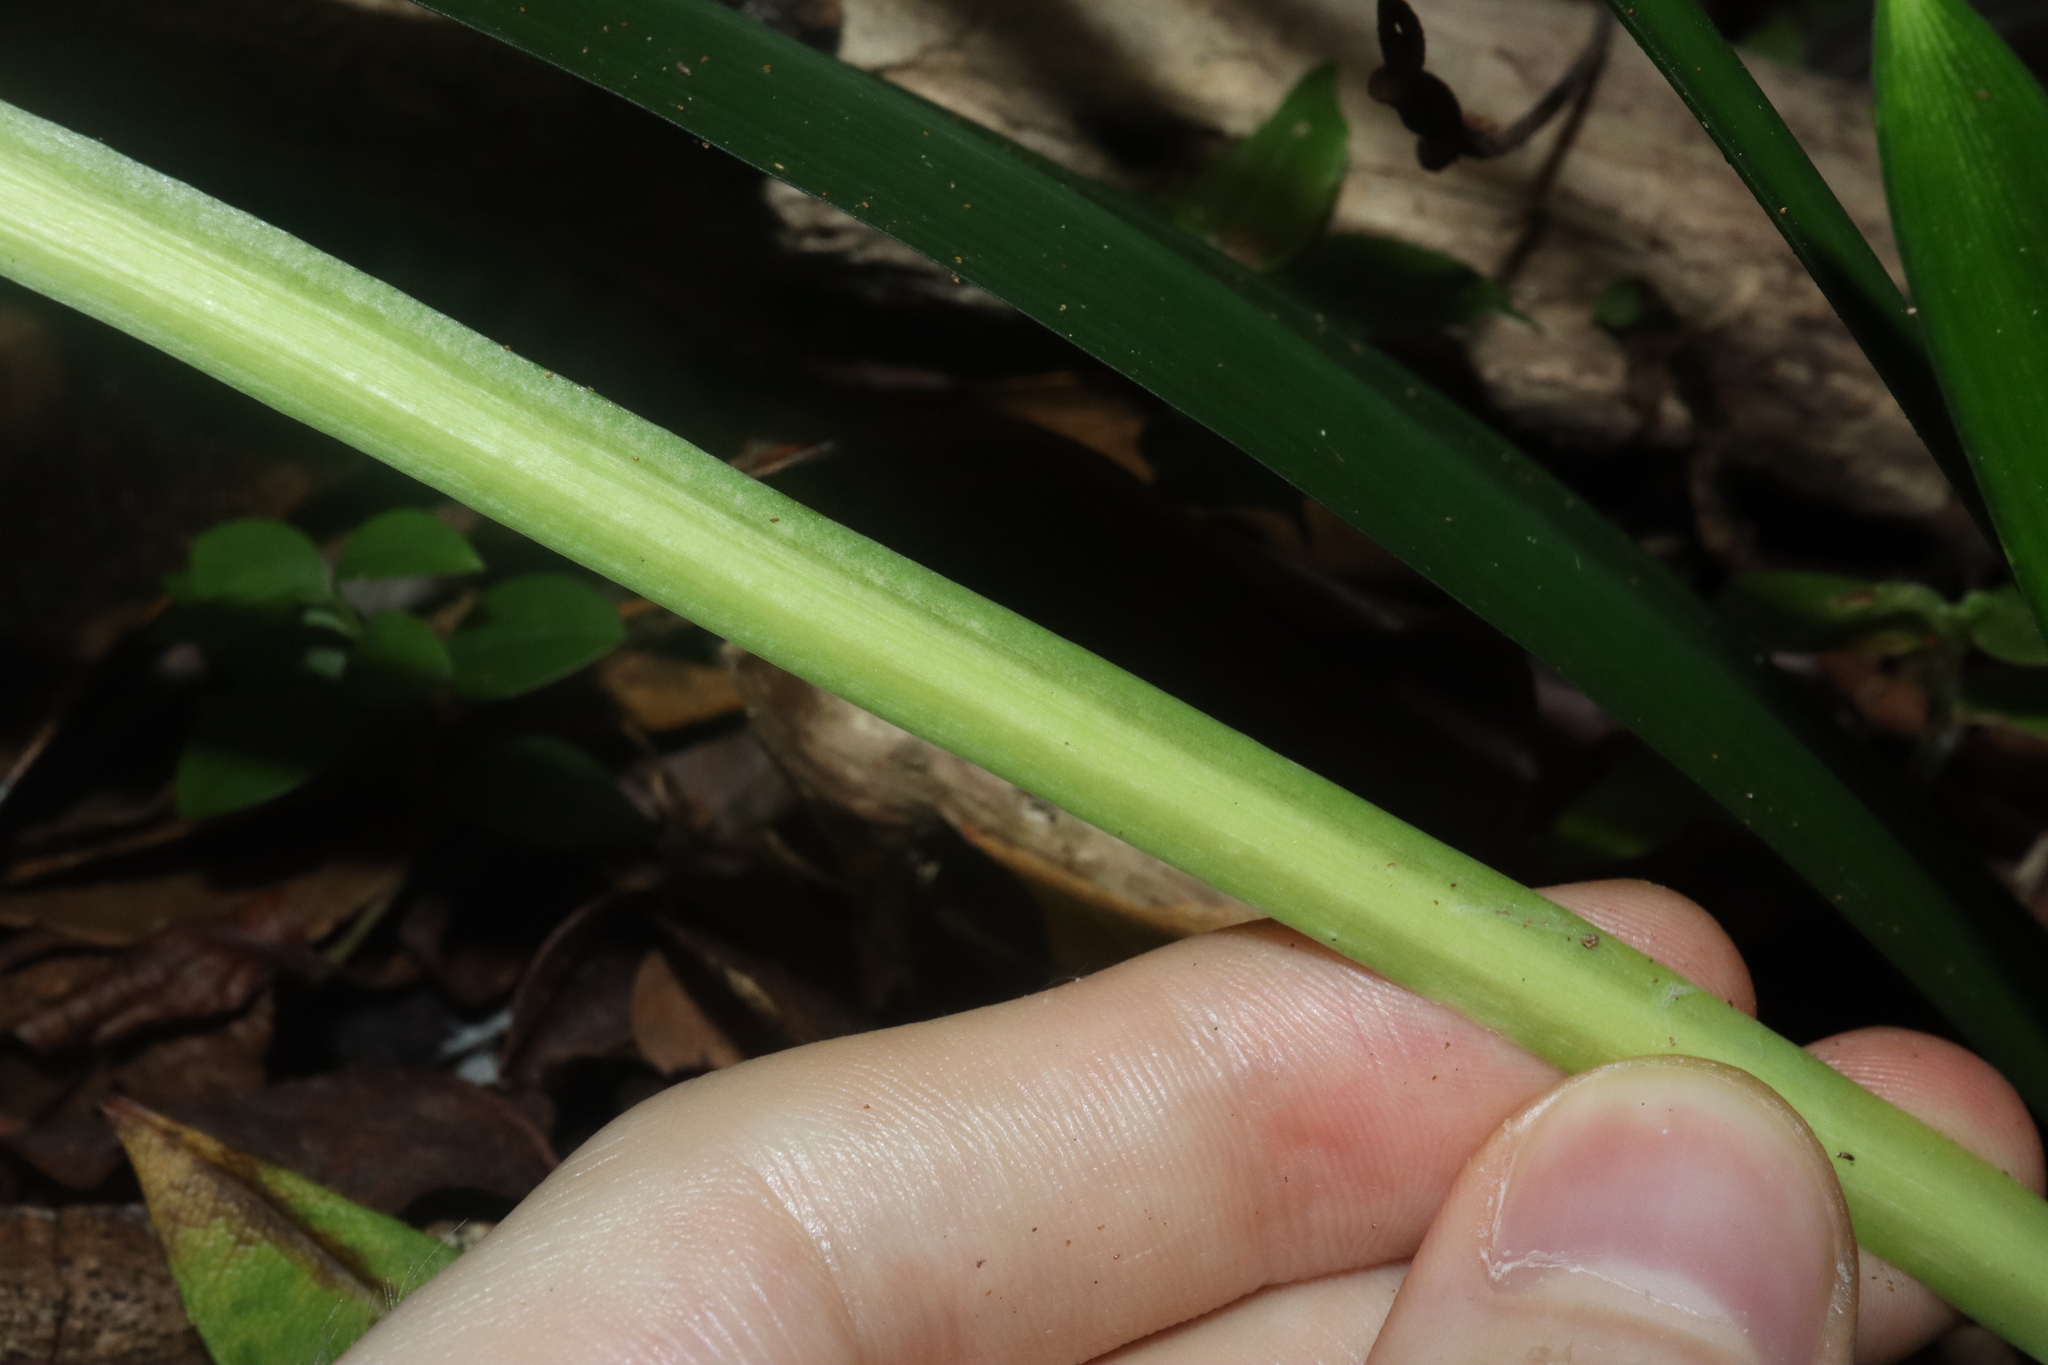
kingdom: Plantae
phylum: Tracheophyta
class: Liliopsida
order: Asparagales
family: Asparagaceae
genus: Ophiopogon
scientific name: Ophiopogon jaburan
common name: Lilyturf
